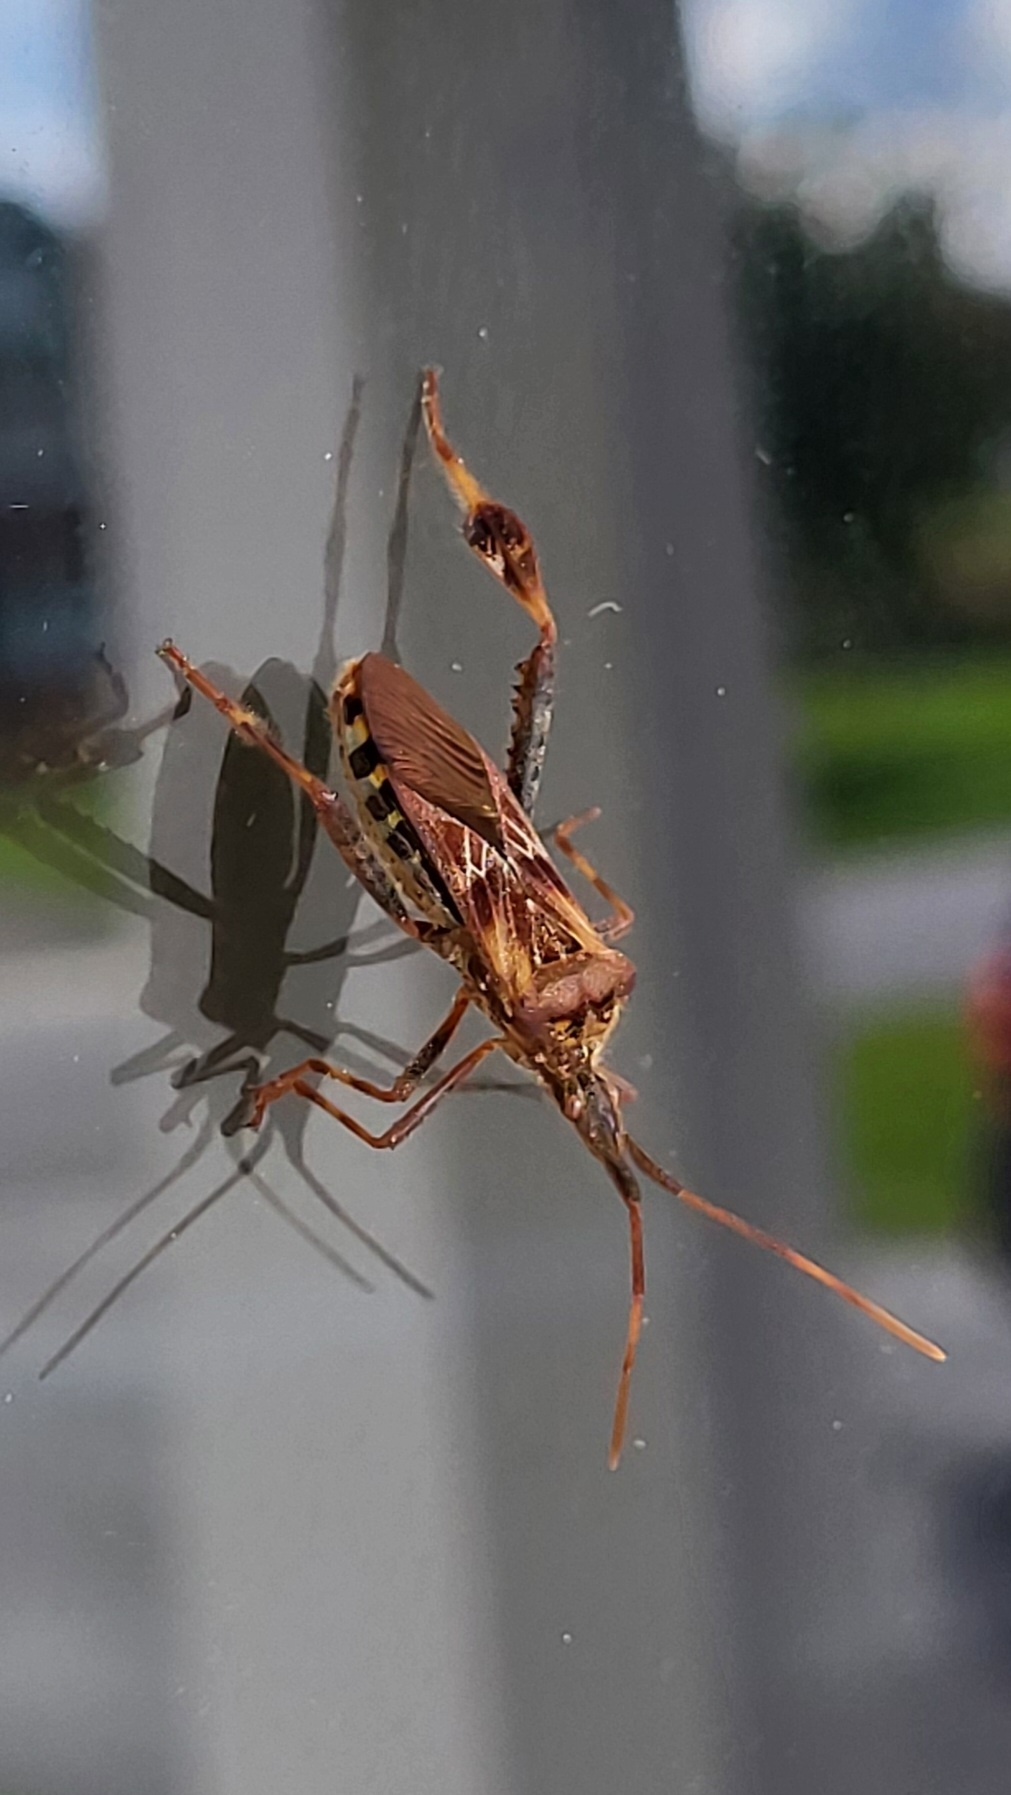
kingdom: Animalia
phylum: Arthropoda
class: Insecta
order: Hemiptera
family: Coreidae
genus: Leptoglossus
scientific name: Leptoglossus occidentalis
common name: Western conifer-seed bug
